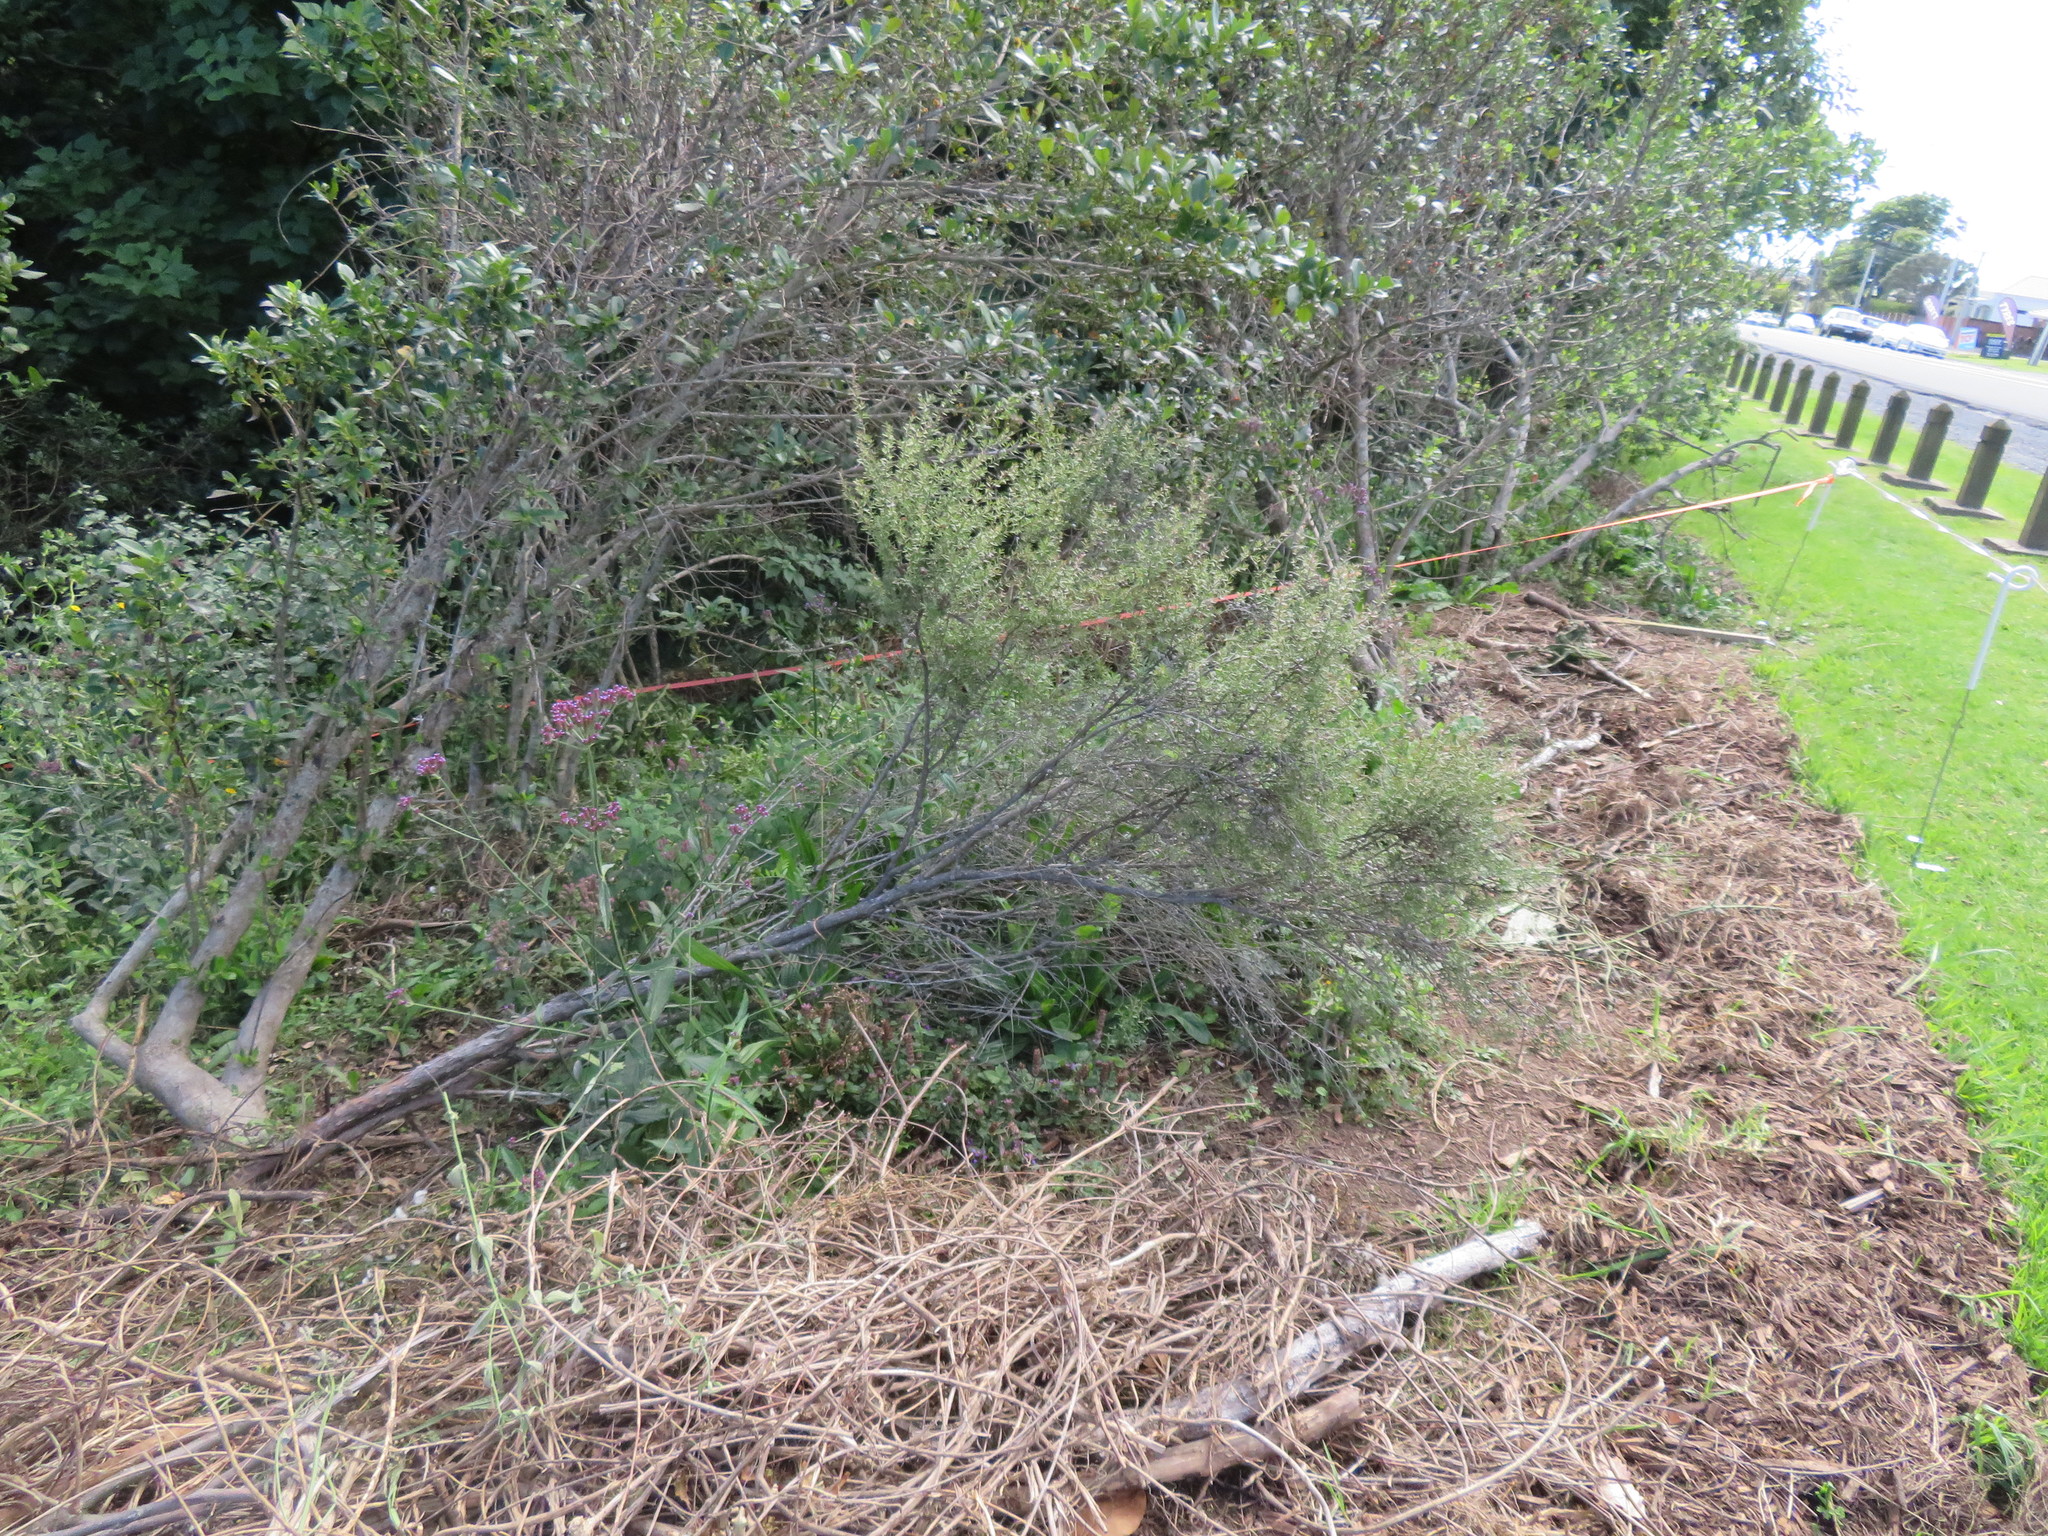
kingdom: Plantae
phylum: Tracheophyta
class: Liliopsida
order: Poales
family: Poaceae
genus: Cenchrus
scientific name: Cenchrus clandestinus
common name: Kikuyugrass
